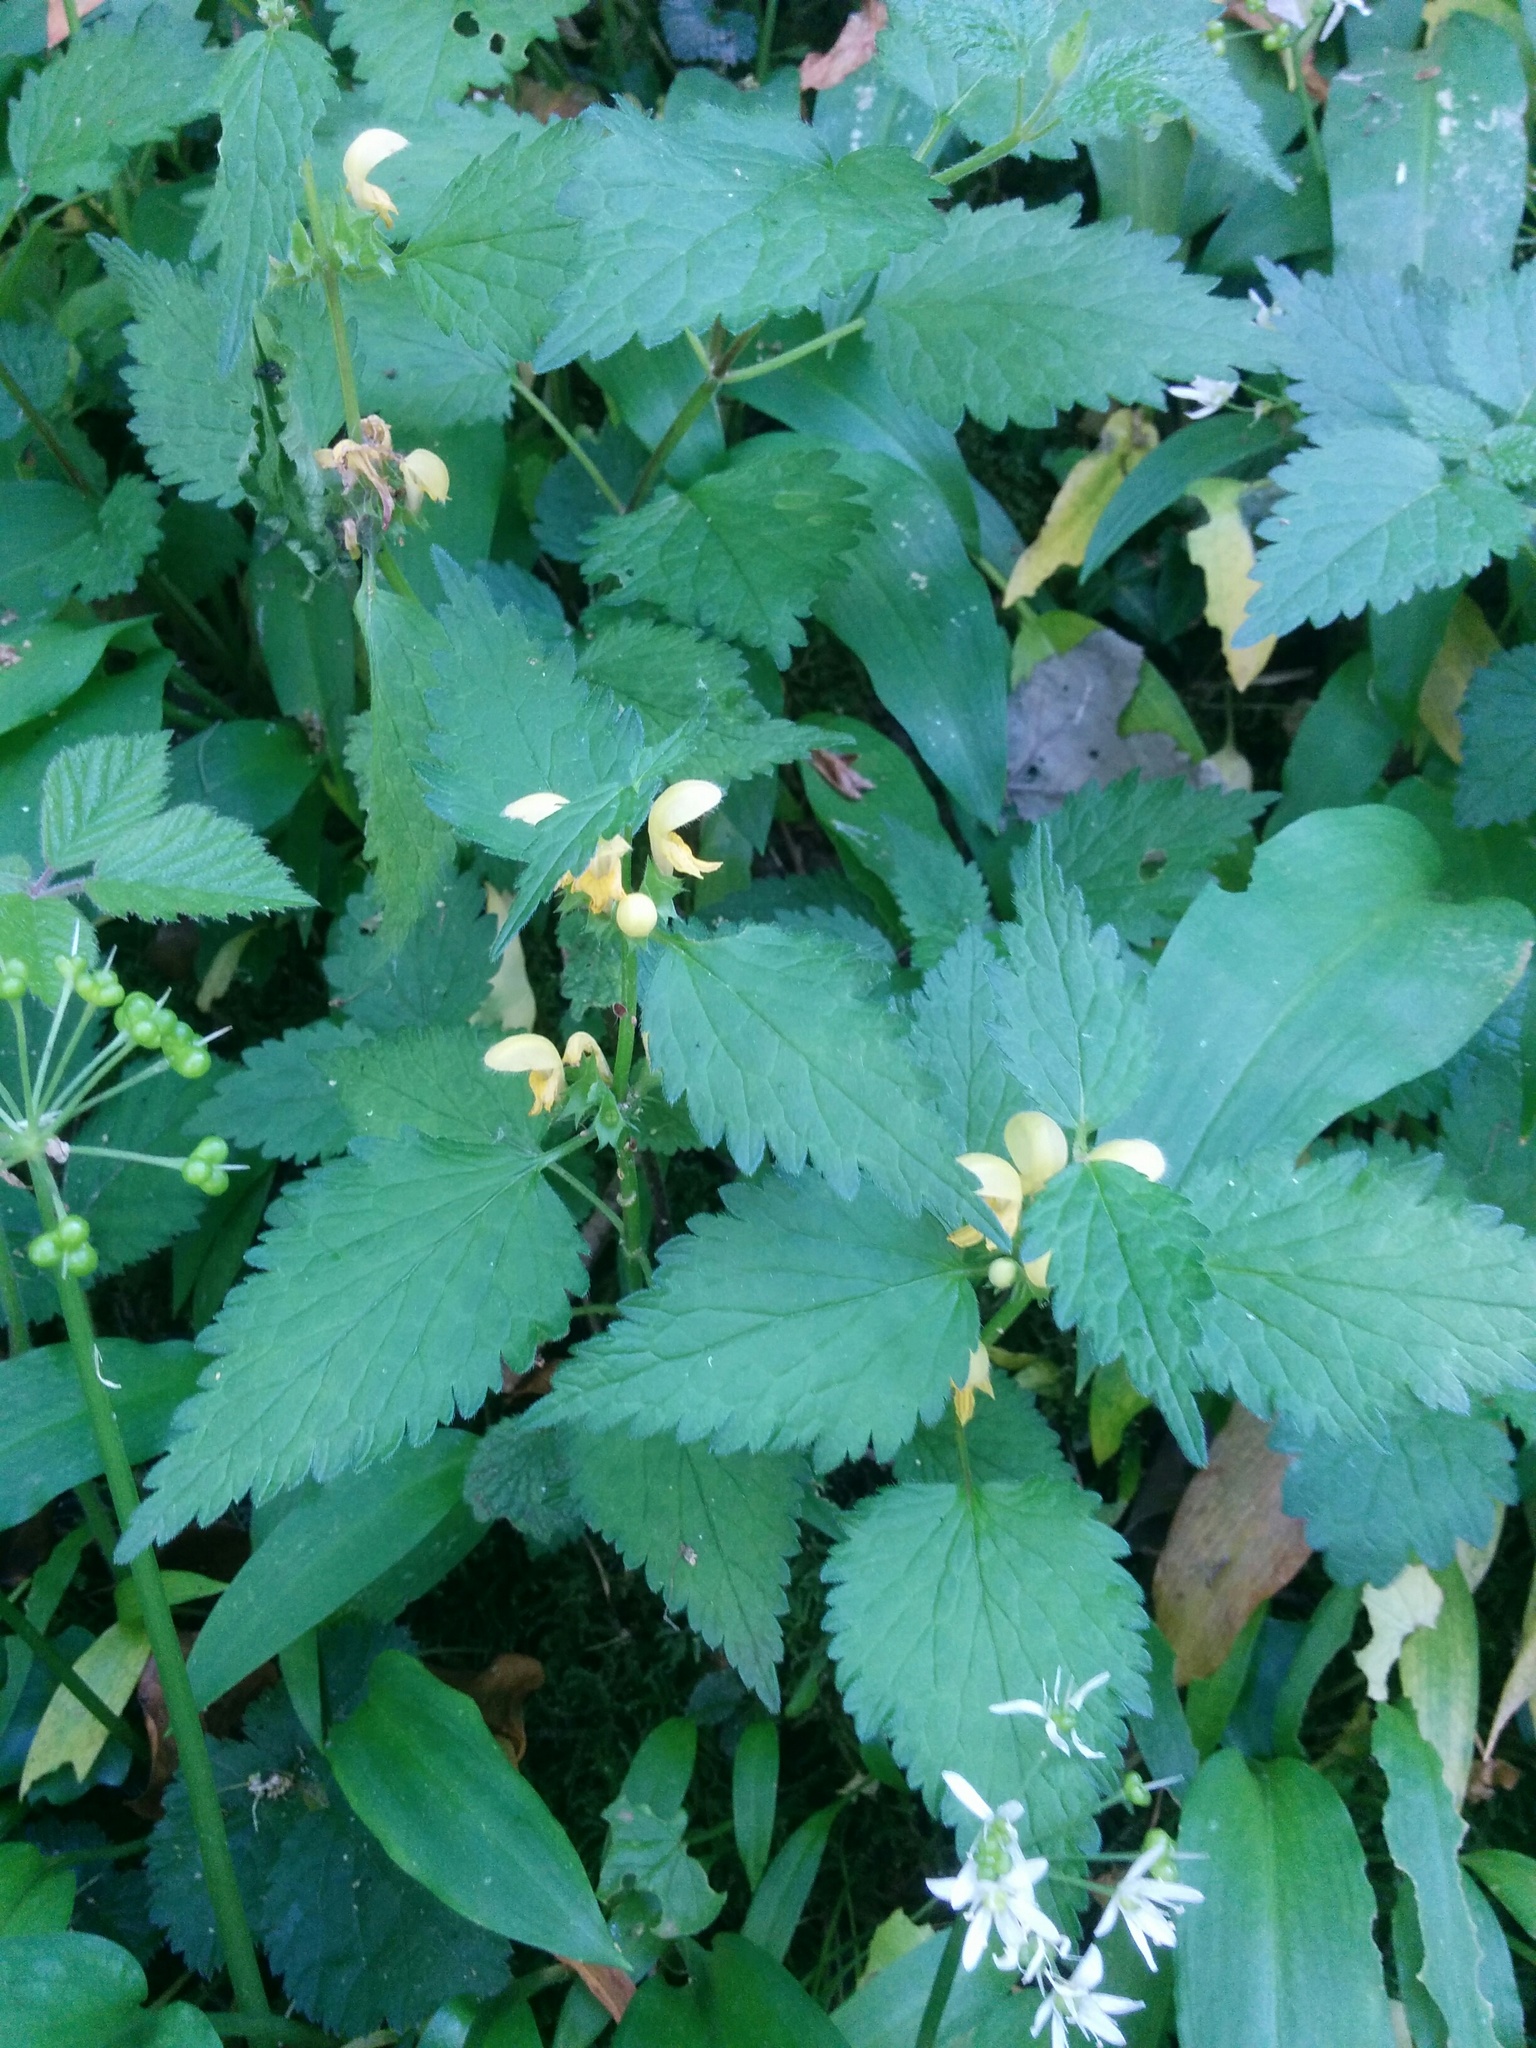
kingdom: Plantae
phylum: Tracheophyta
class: Magnoliopsida
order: Lamiales
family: Lamiaceae
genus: Lamium
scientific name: Lamium galeobdolon
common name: Yellow archangel
